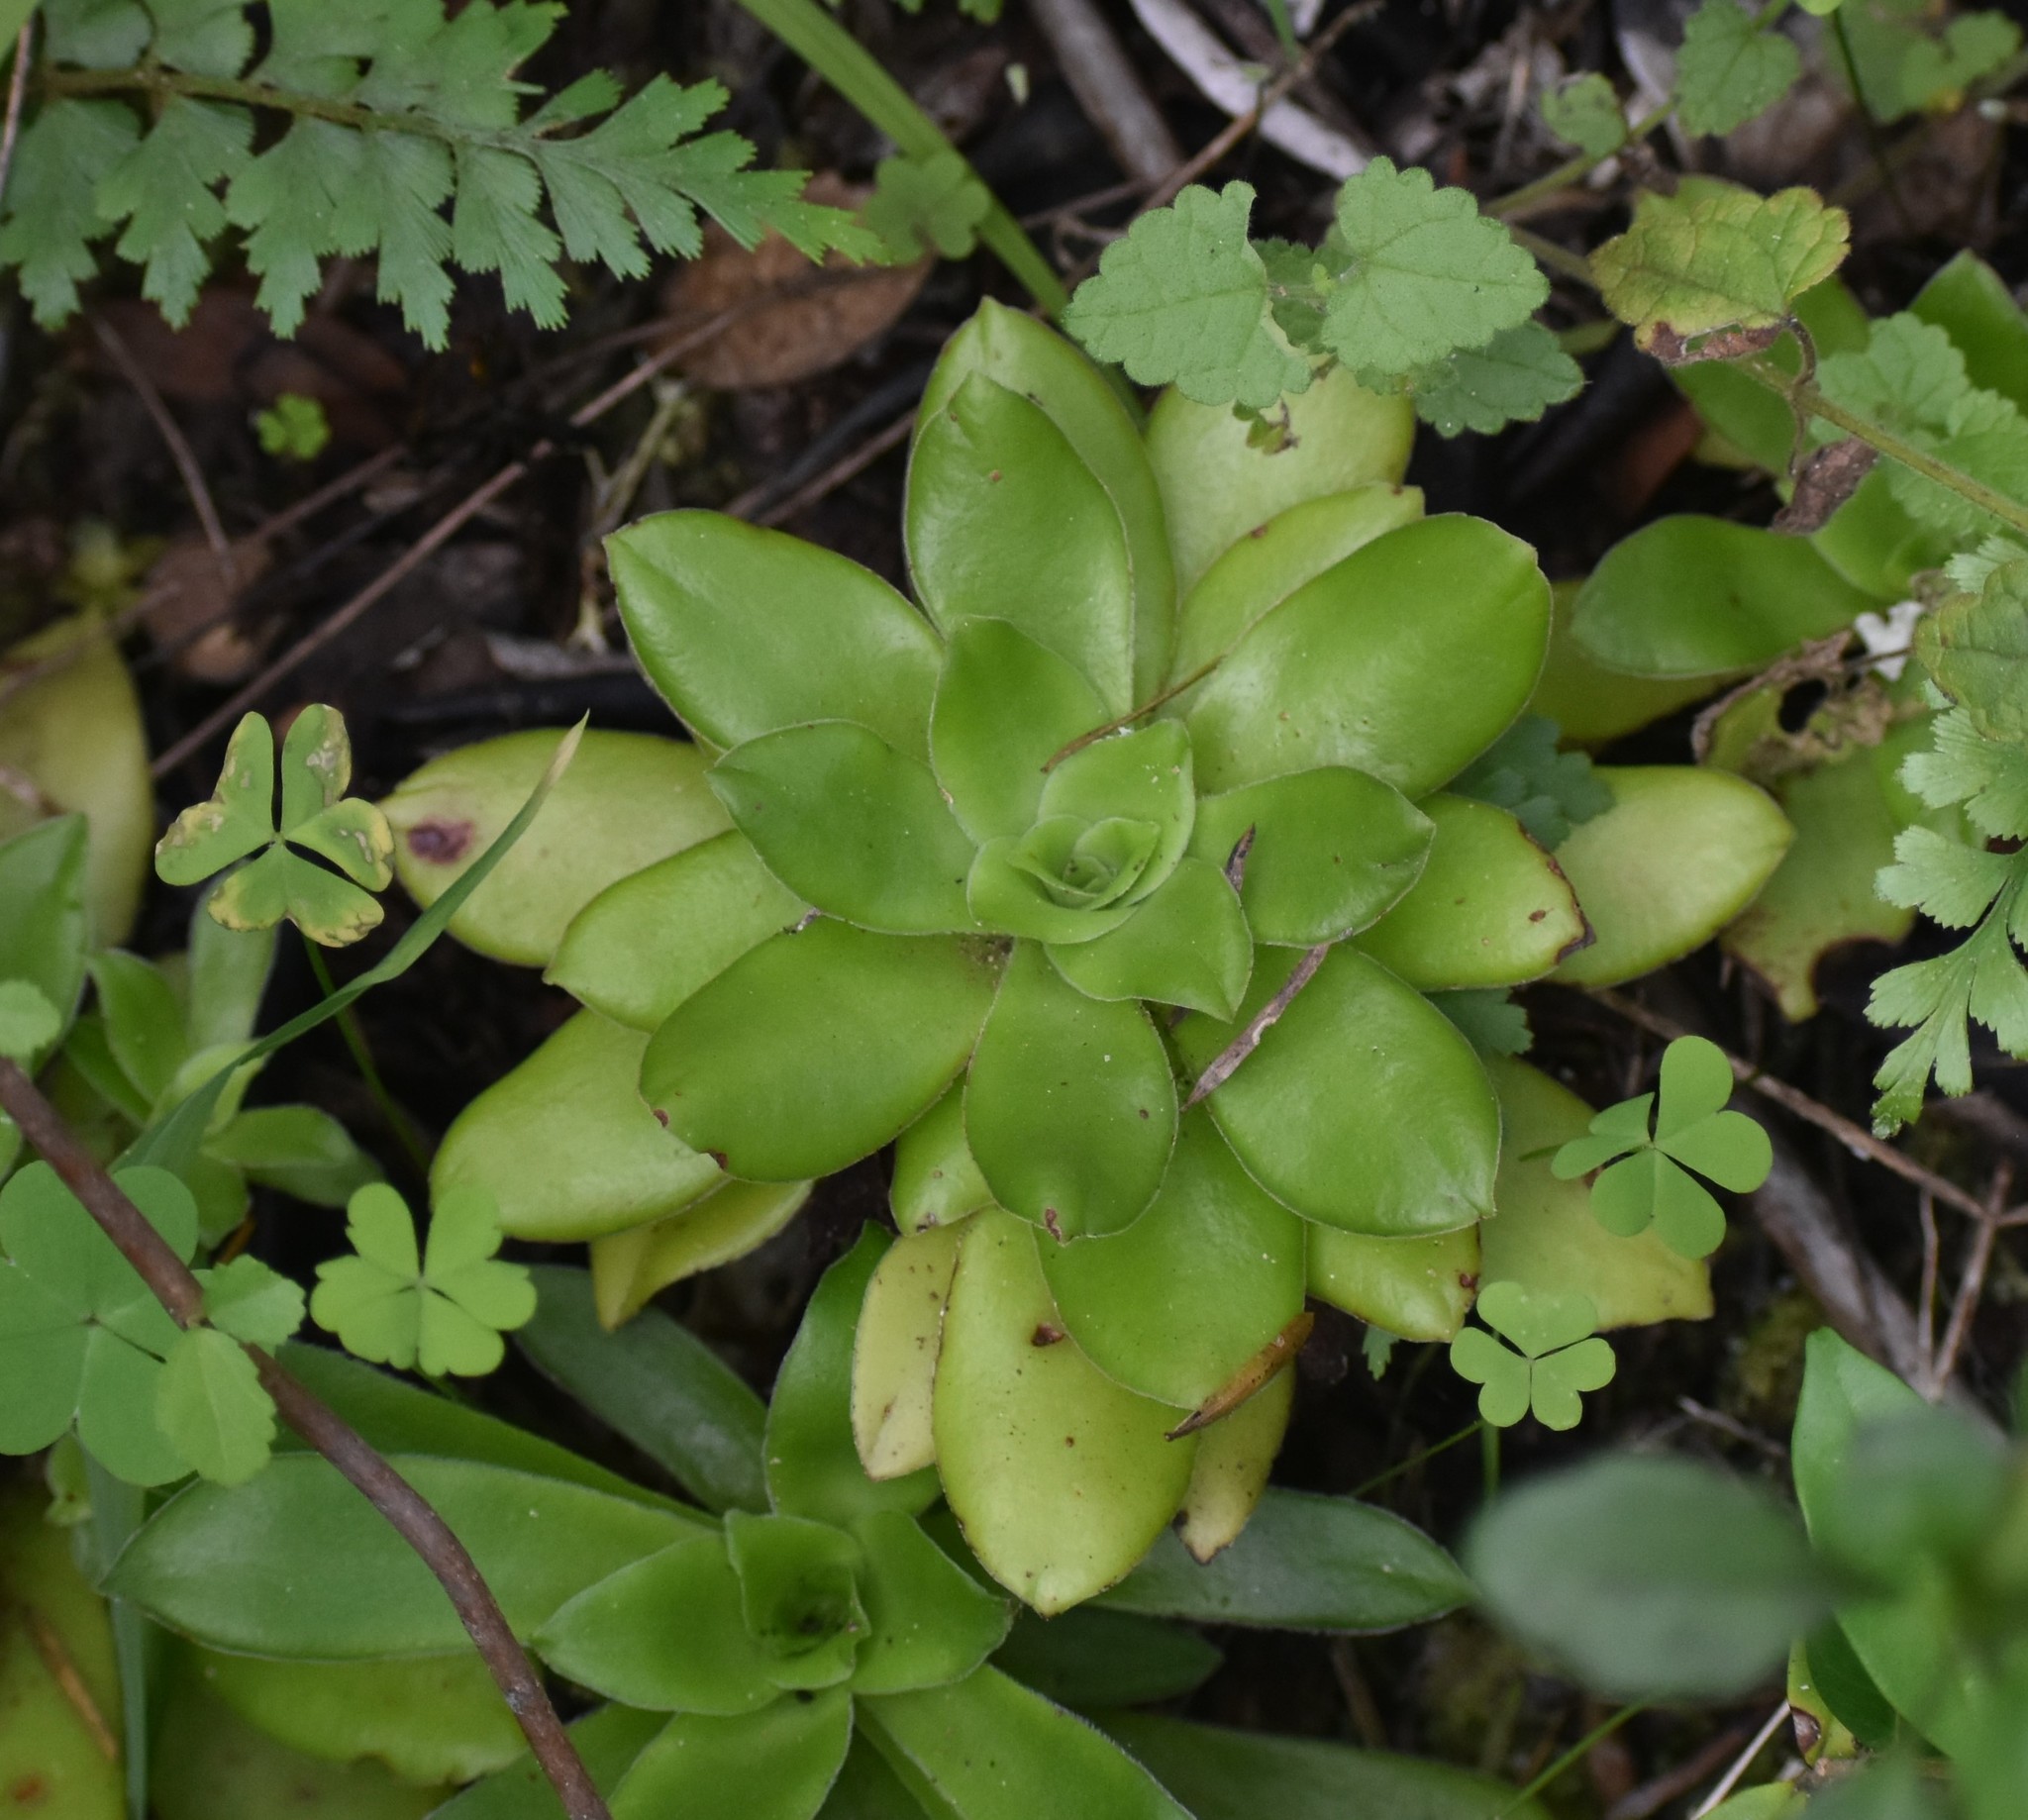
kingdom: Plantae
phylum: Tracheophyta
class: Magnoliopsida
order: Saxifragales
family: Crassulaceae
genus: Crassula
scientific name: Crassula orbicularis
